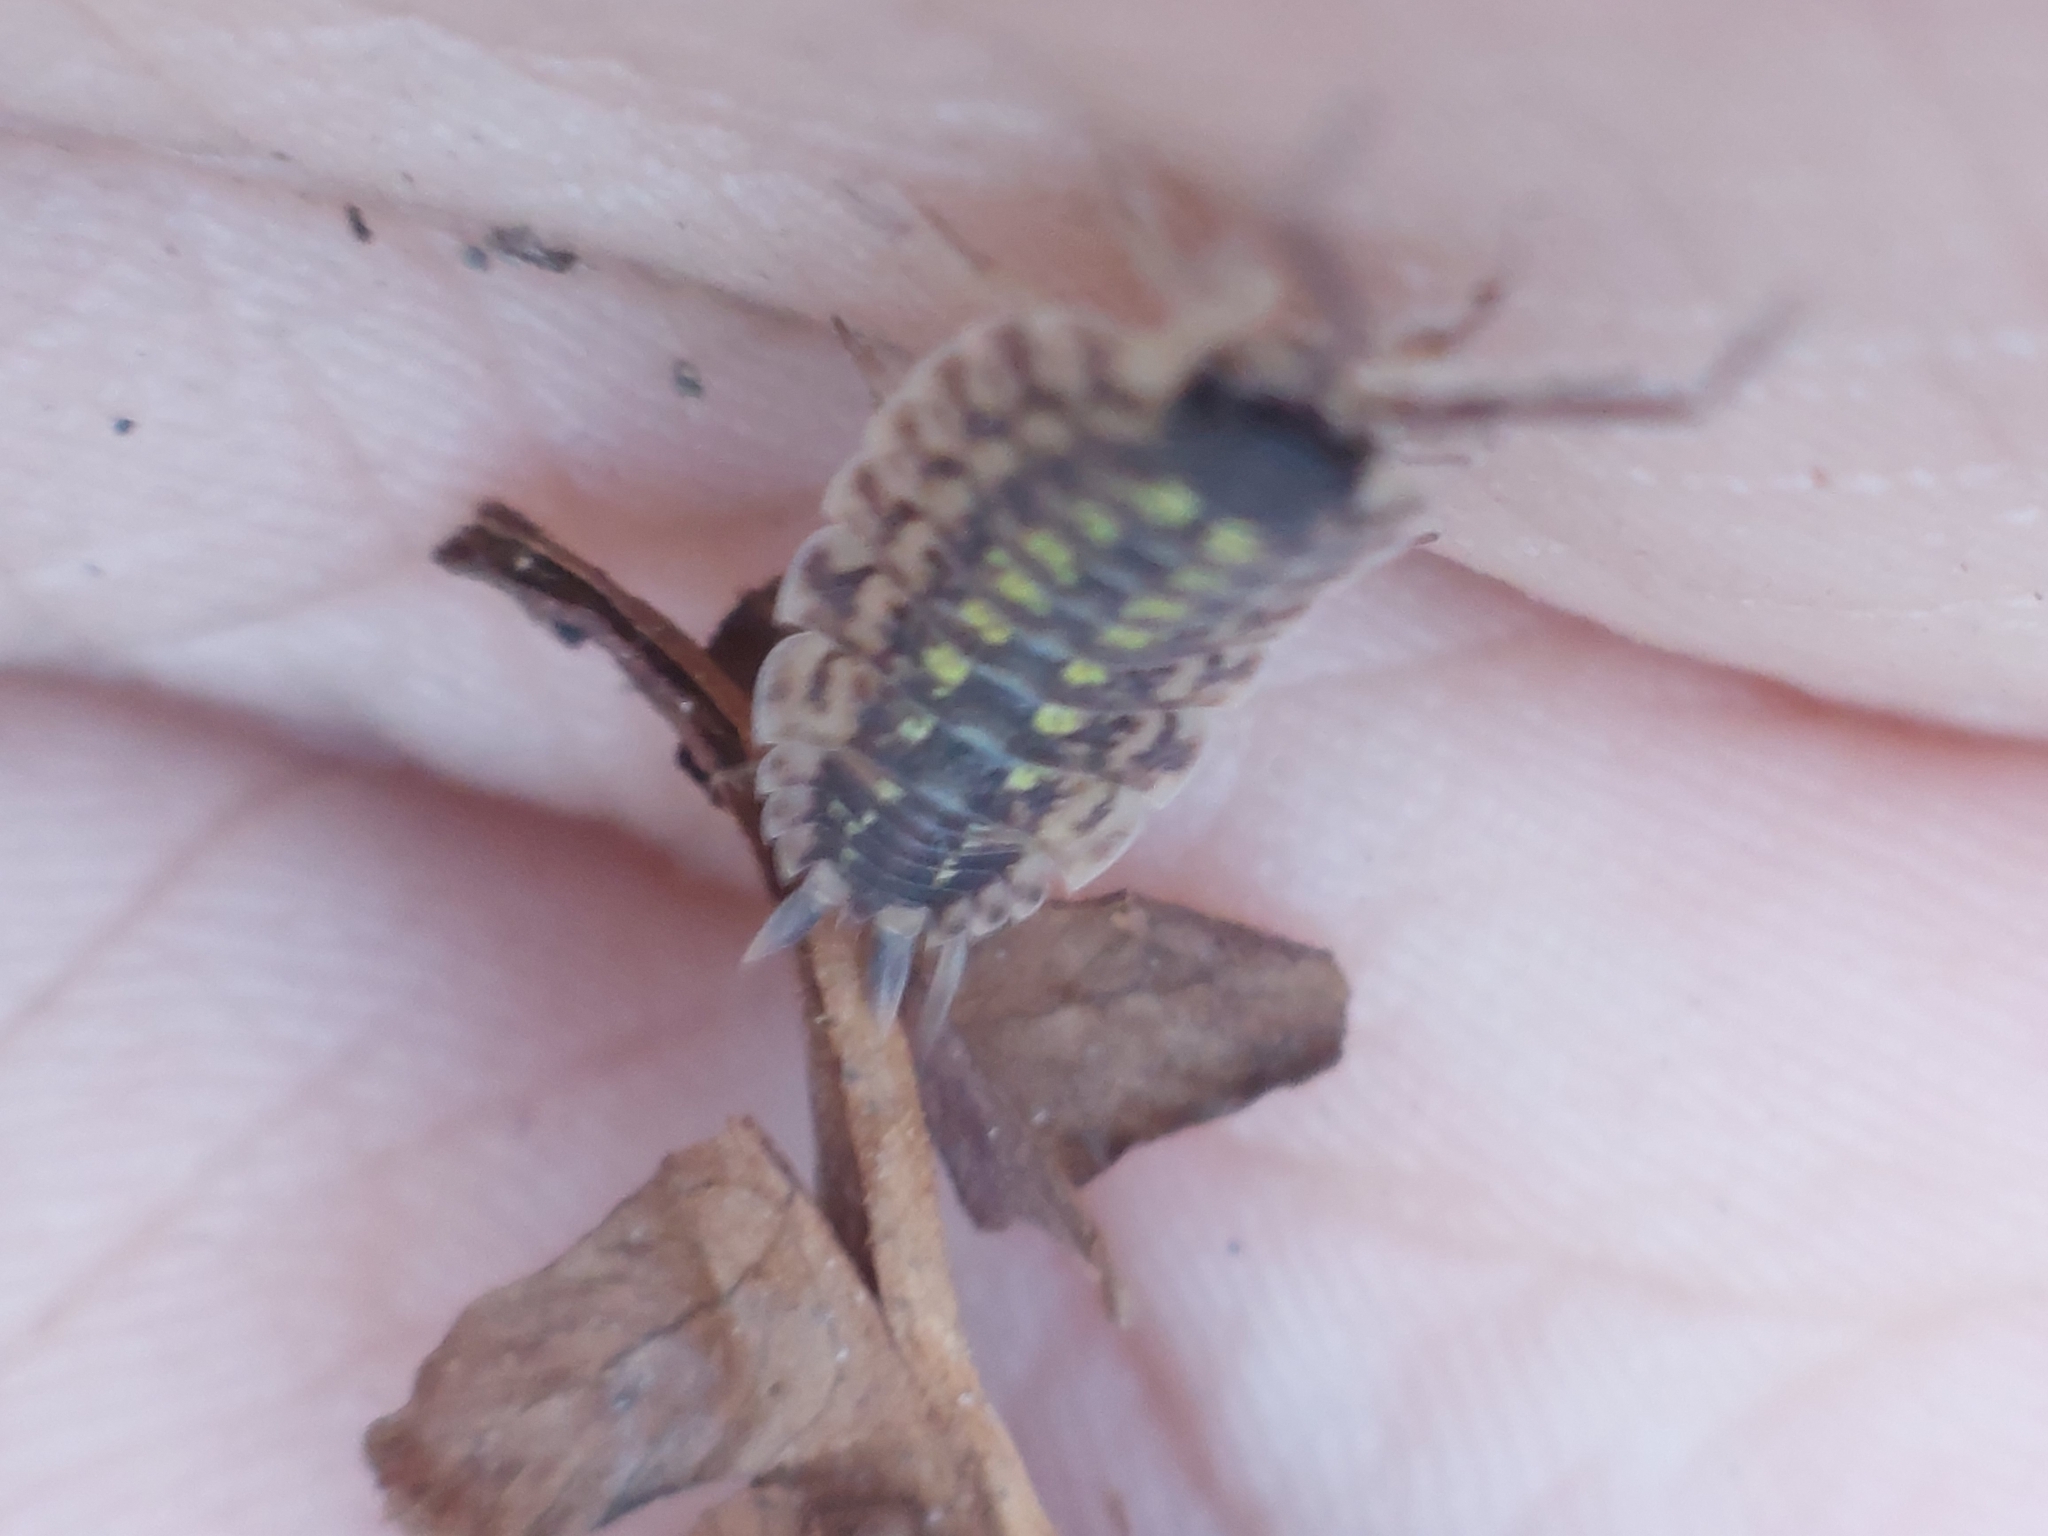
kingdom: Animalia
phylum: Arthropoda
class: Malacostraca
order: Isopoda
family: Porcellionidae
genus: Porcellio
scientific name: Porcellio spinicornis
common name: Painted woodlouse
